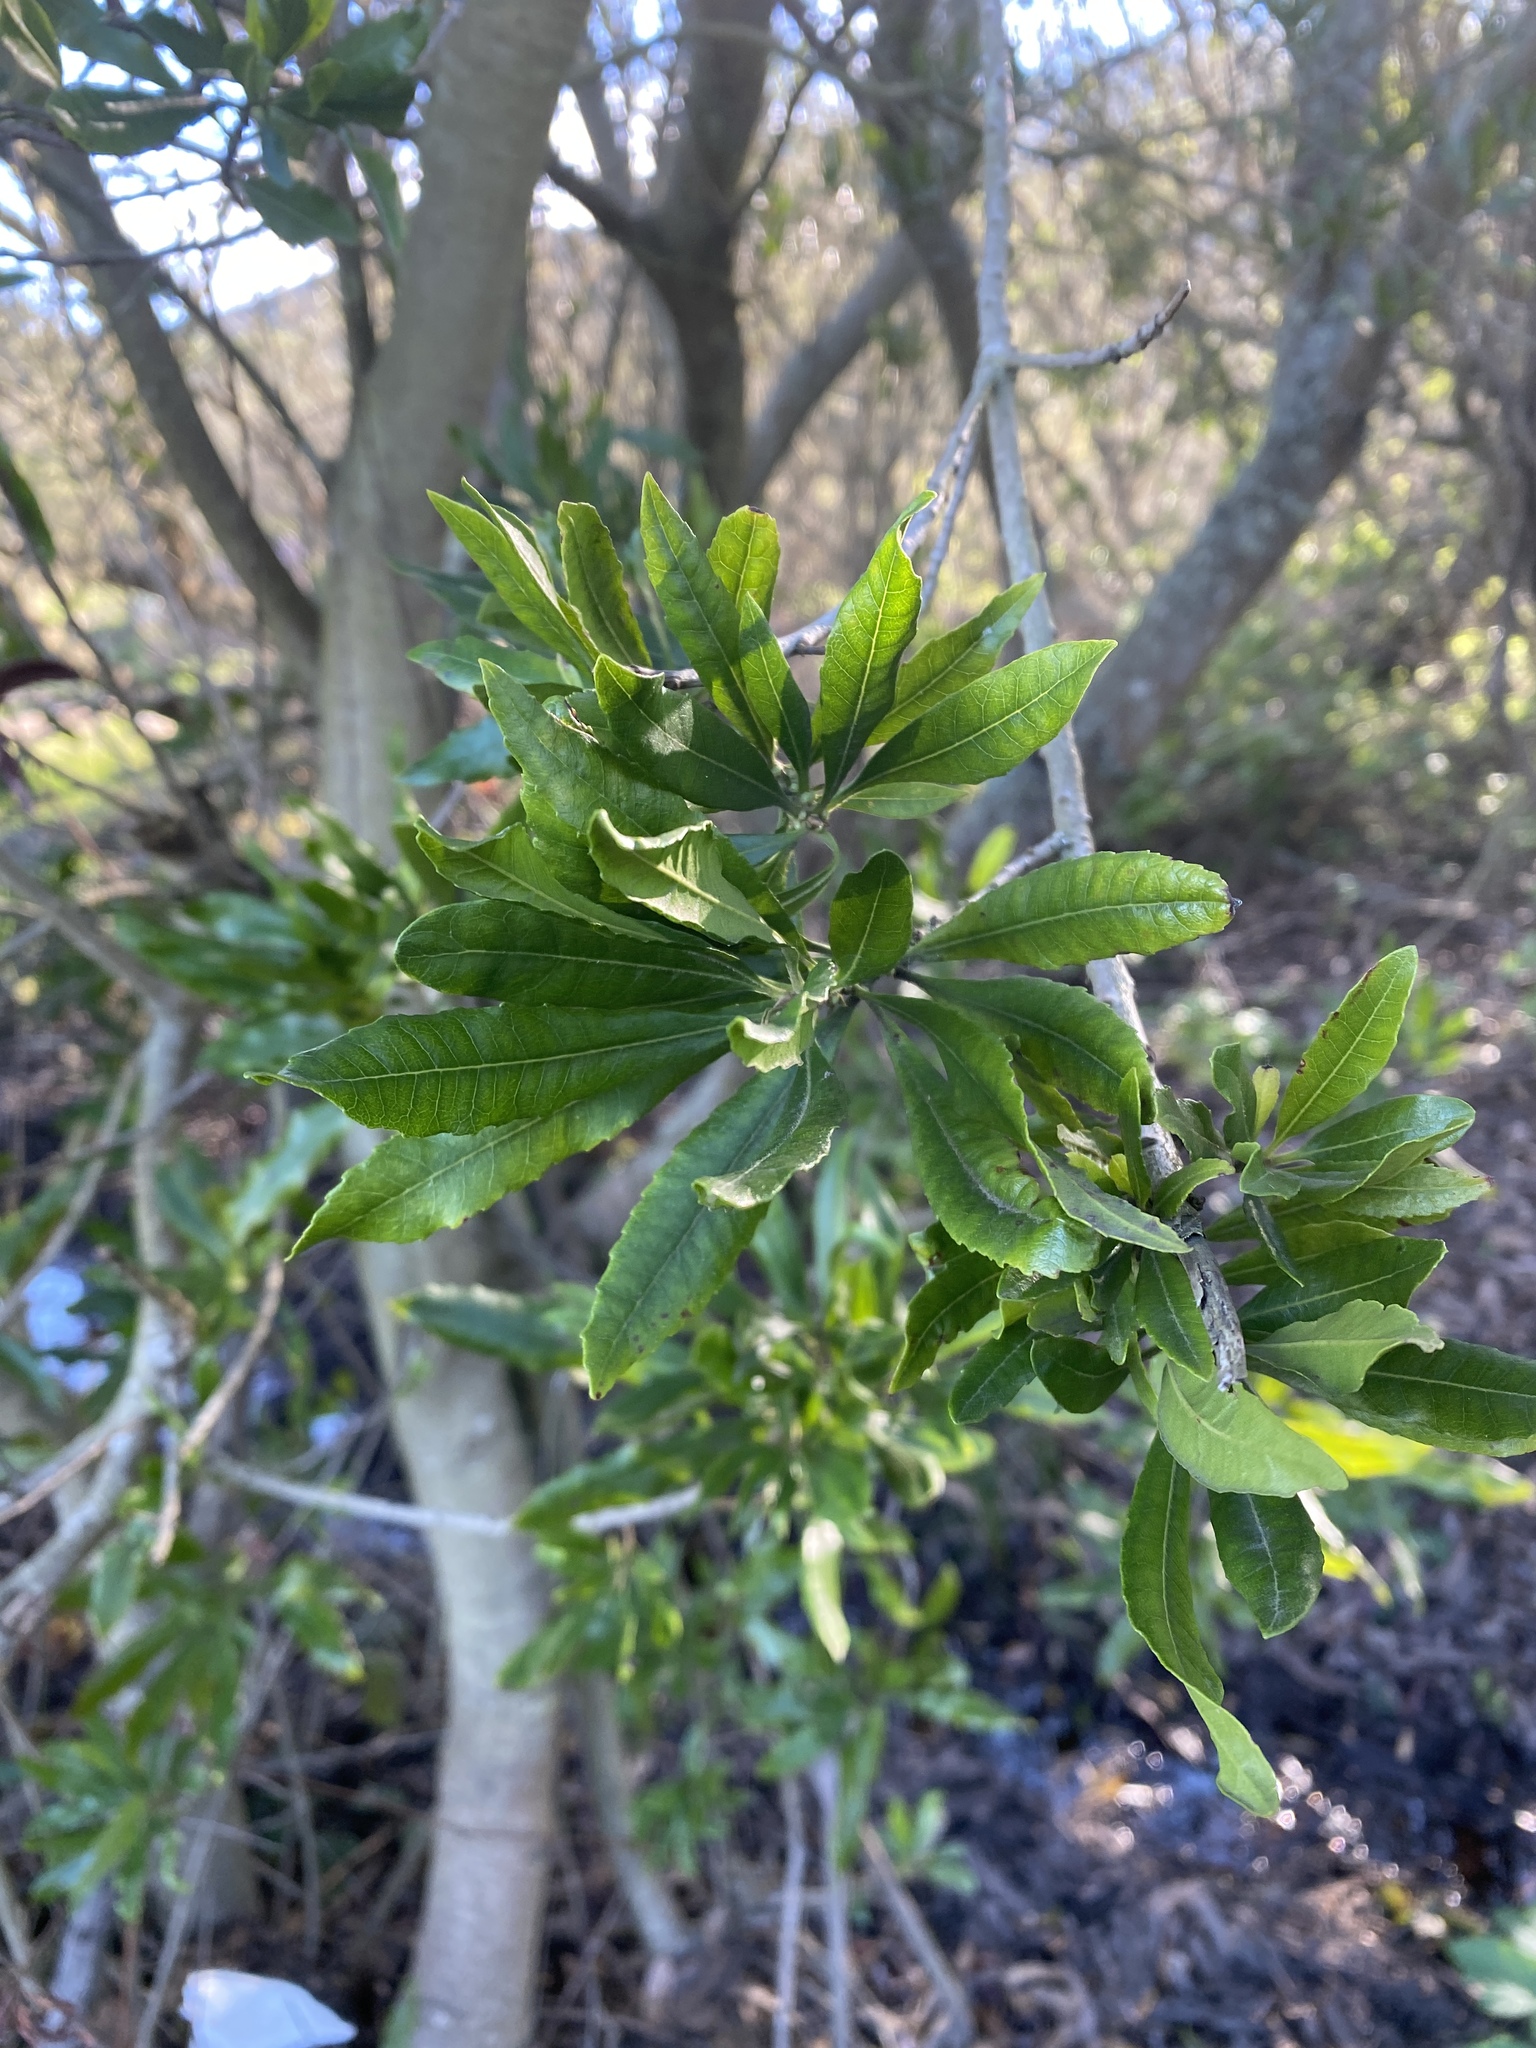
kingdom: Plantae
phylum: Tracheophyta
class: Magnoliopsida
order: Fagales
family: Myricaceae
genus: Morella
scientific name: Morella californica
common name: California wax-myrtle
